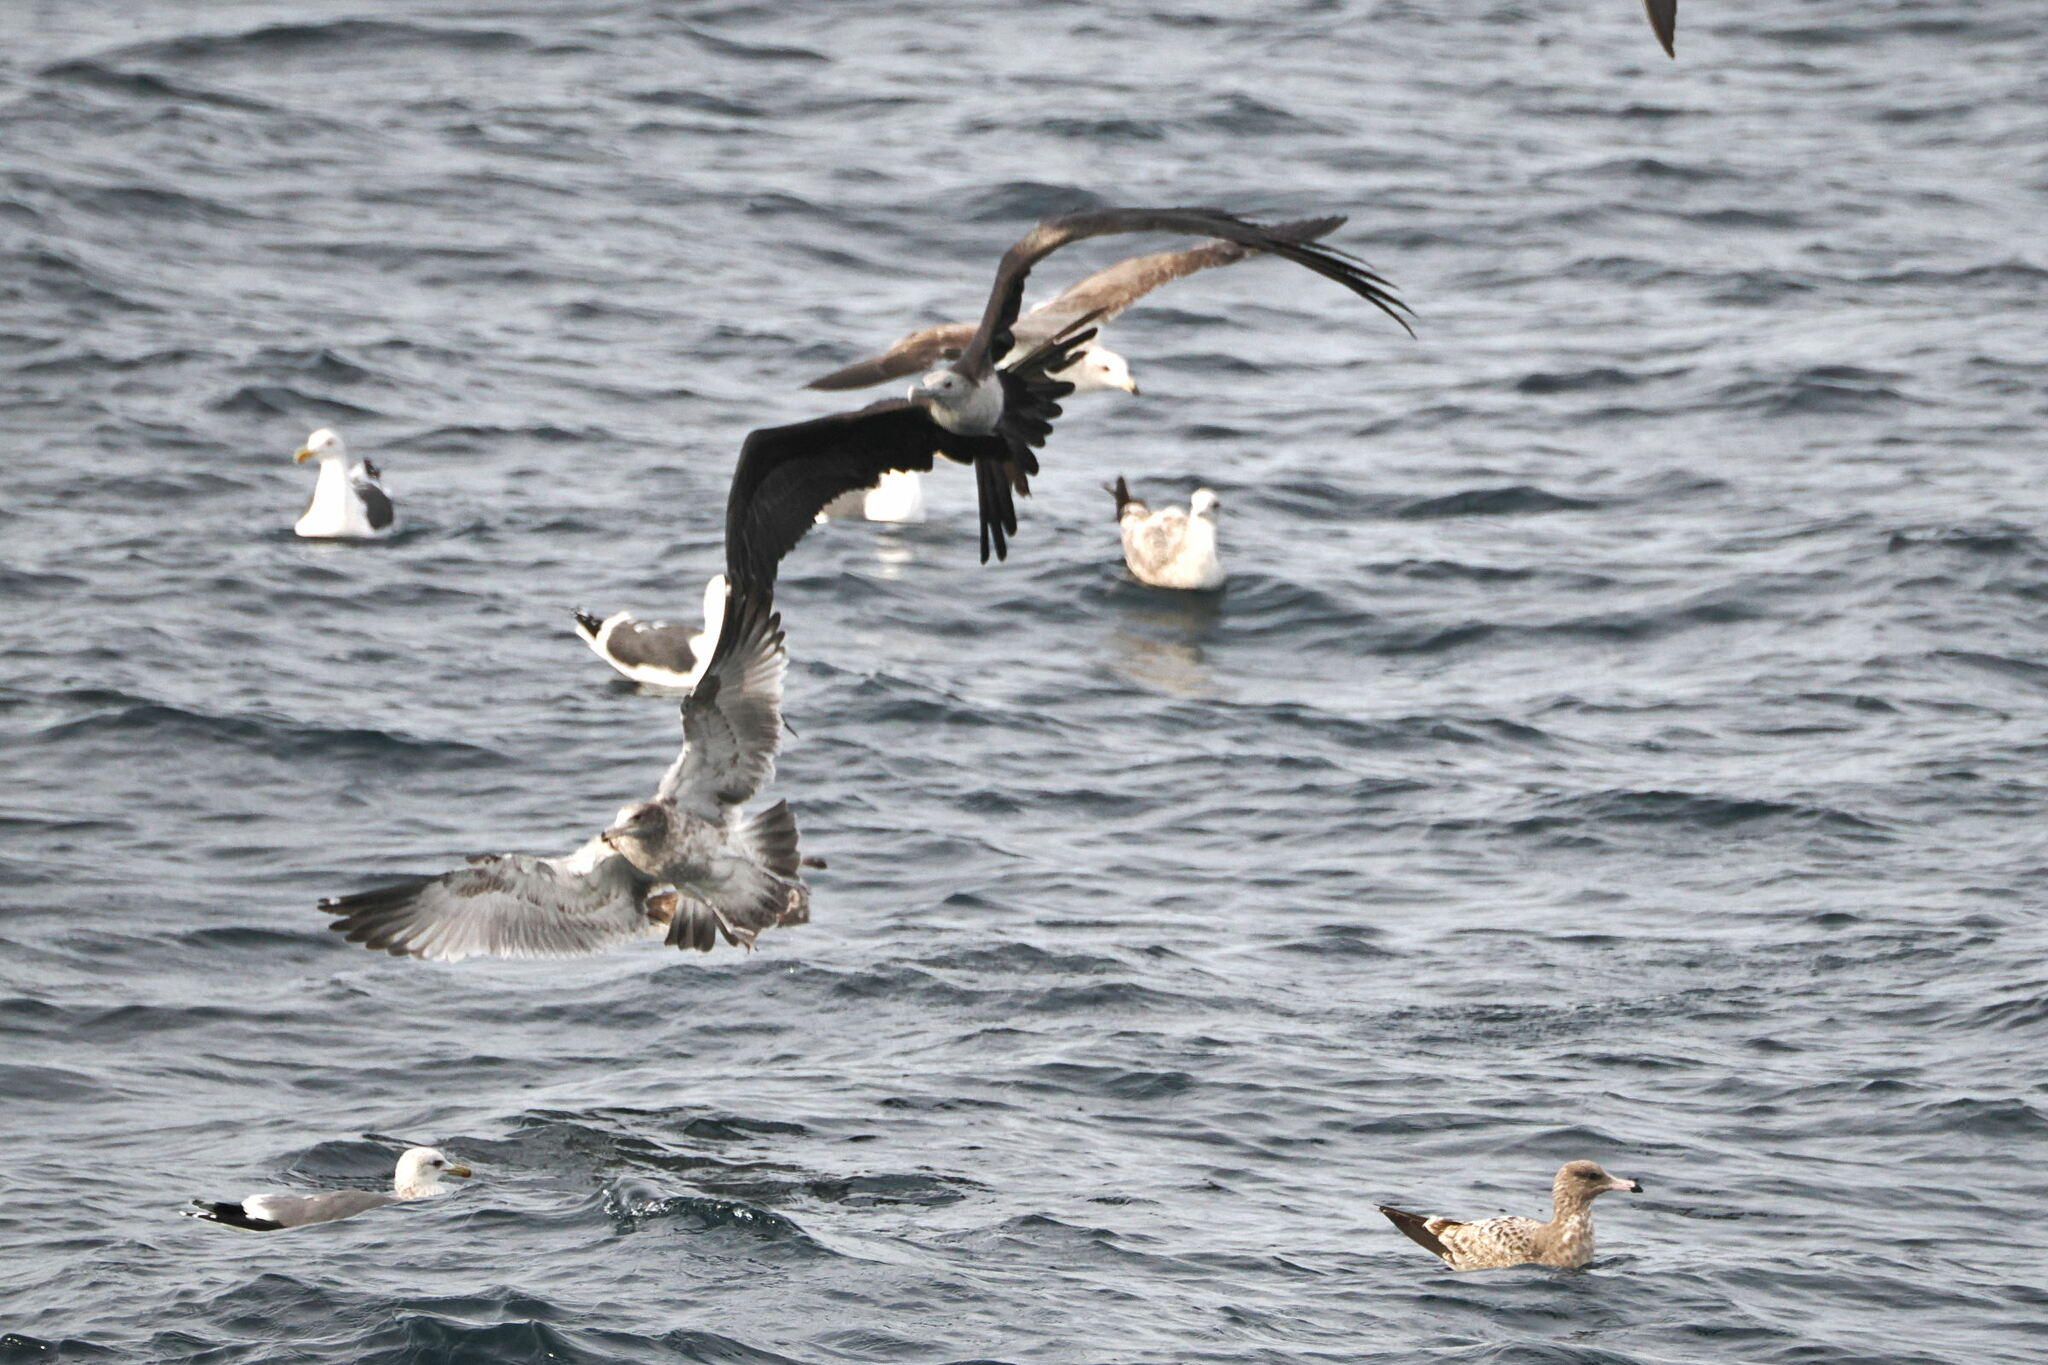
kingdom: Animalia
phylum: Chordata
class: Aves
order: Suliformes
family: Fregatidae
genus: Fregata
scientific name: Fregata magnificens
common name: Magnificent frigatebird
